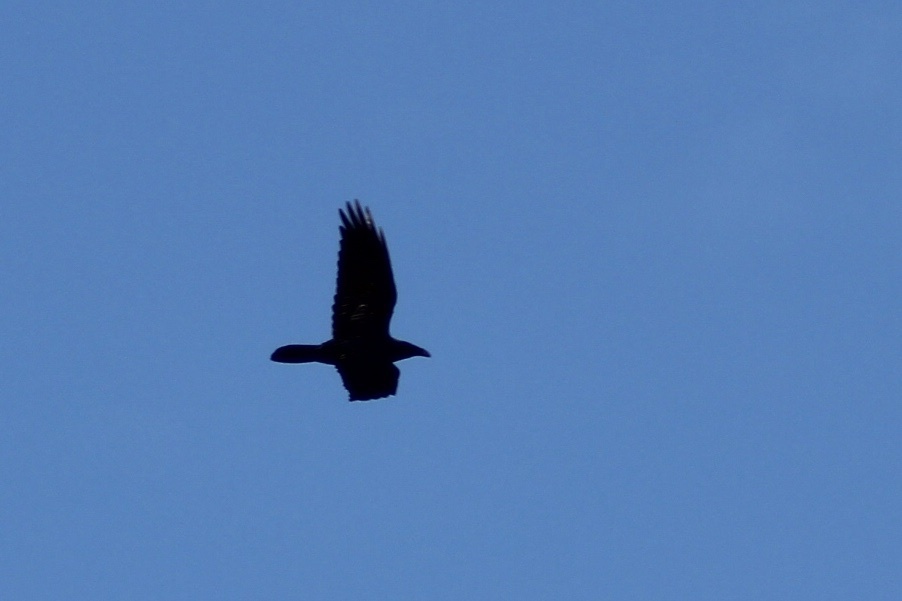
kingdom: Animalia
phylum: Chordata
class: Aves
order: Passeriformes
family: Corvidae
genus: Corvus
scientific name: Corvus corax
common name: Common raven
